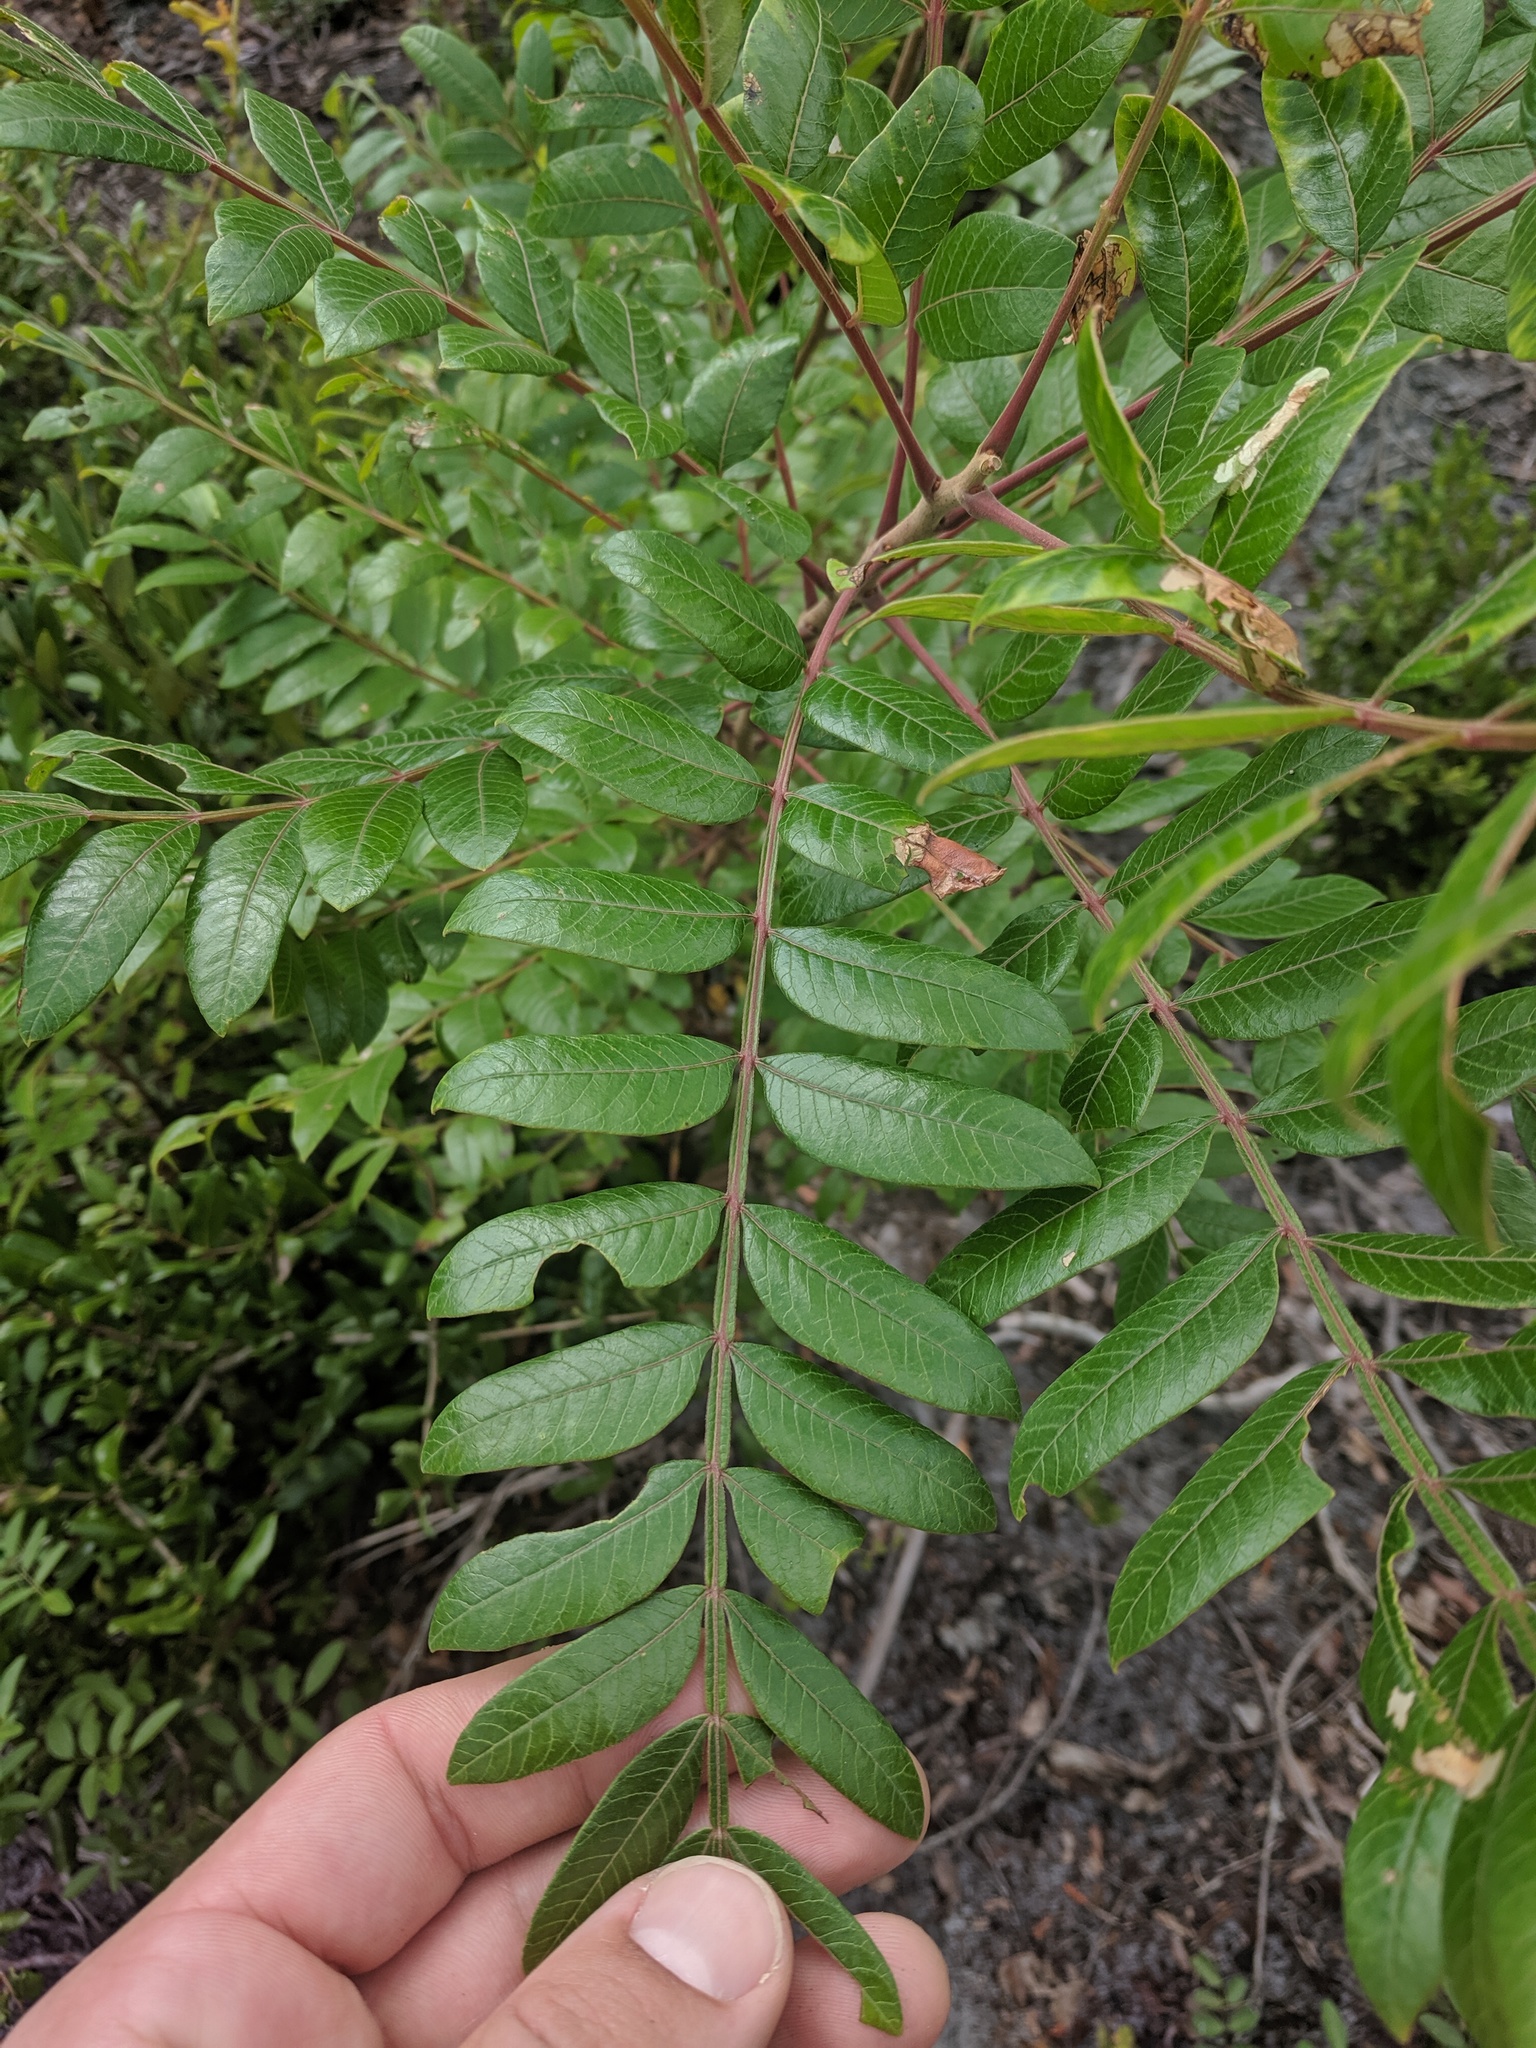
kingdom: Plantae
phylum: Tracheophyta
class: Magnoliopsida
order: Sapindales
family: Anacardiaceae
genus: Rhus
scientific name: Rhus copallina
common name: Shining sumac
